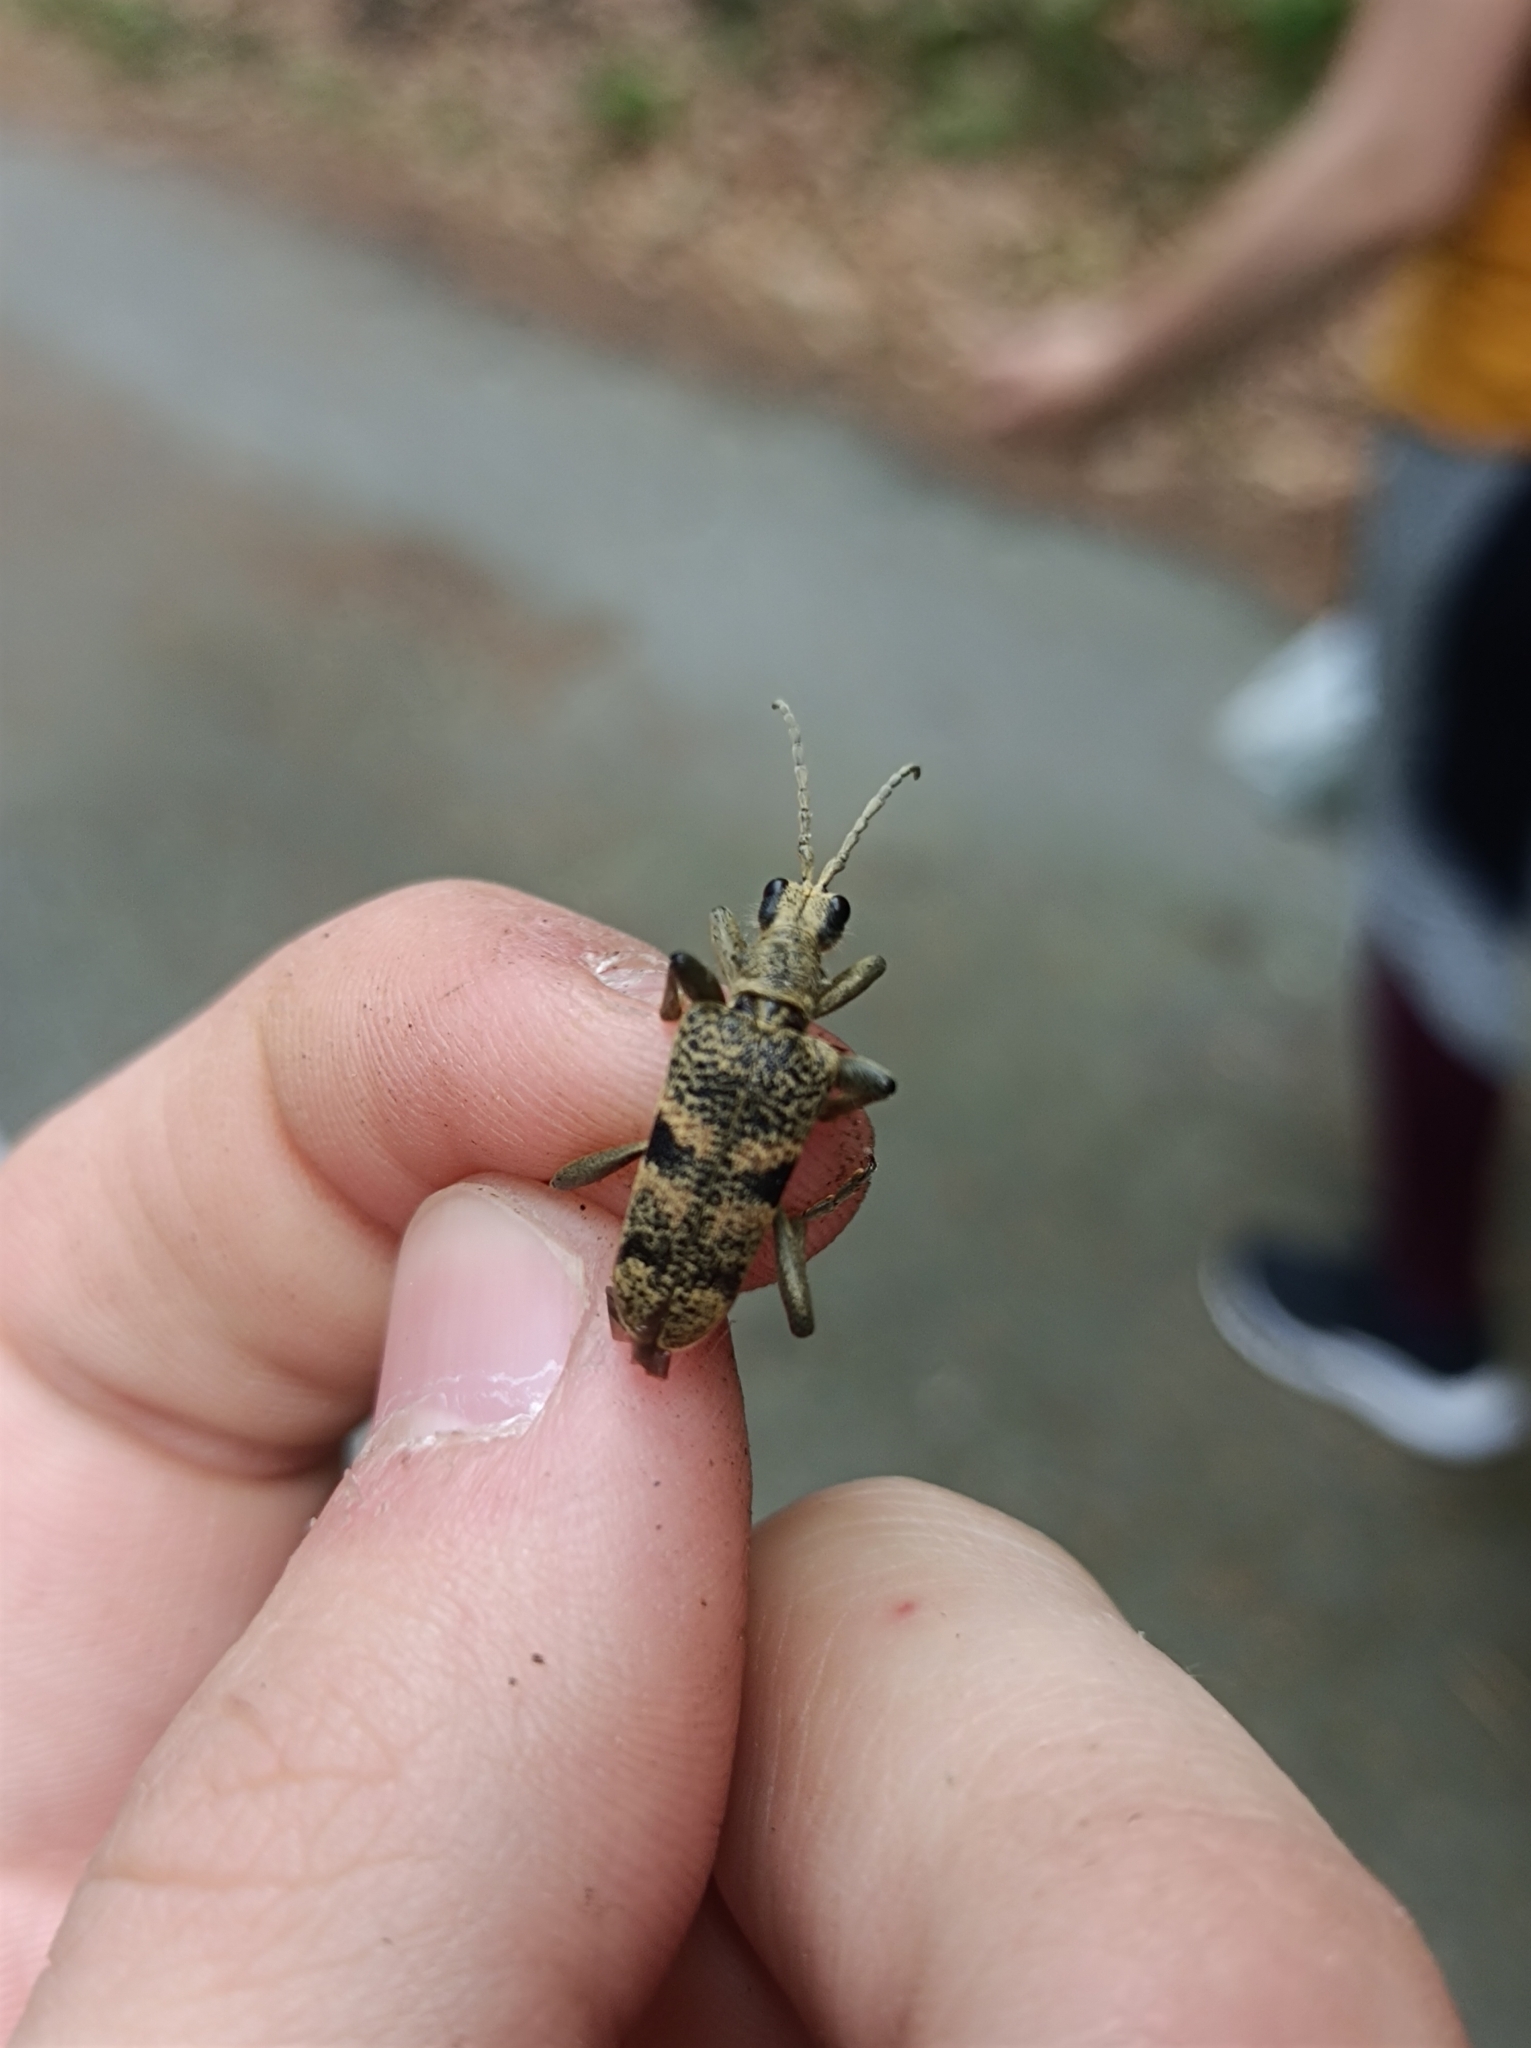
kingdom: Animalia
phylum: Arthropoda
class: Insecta
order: Coleoptera
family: Cerambycidae
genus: Rhagium
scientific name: Rhagium mordax
